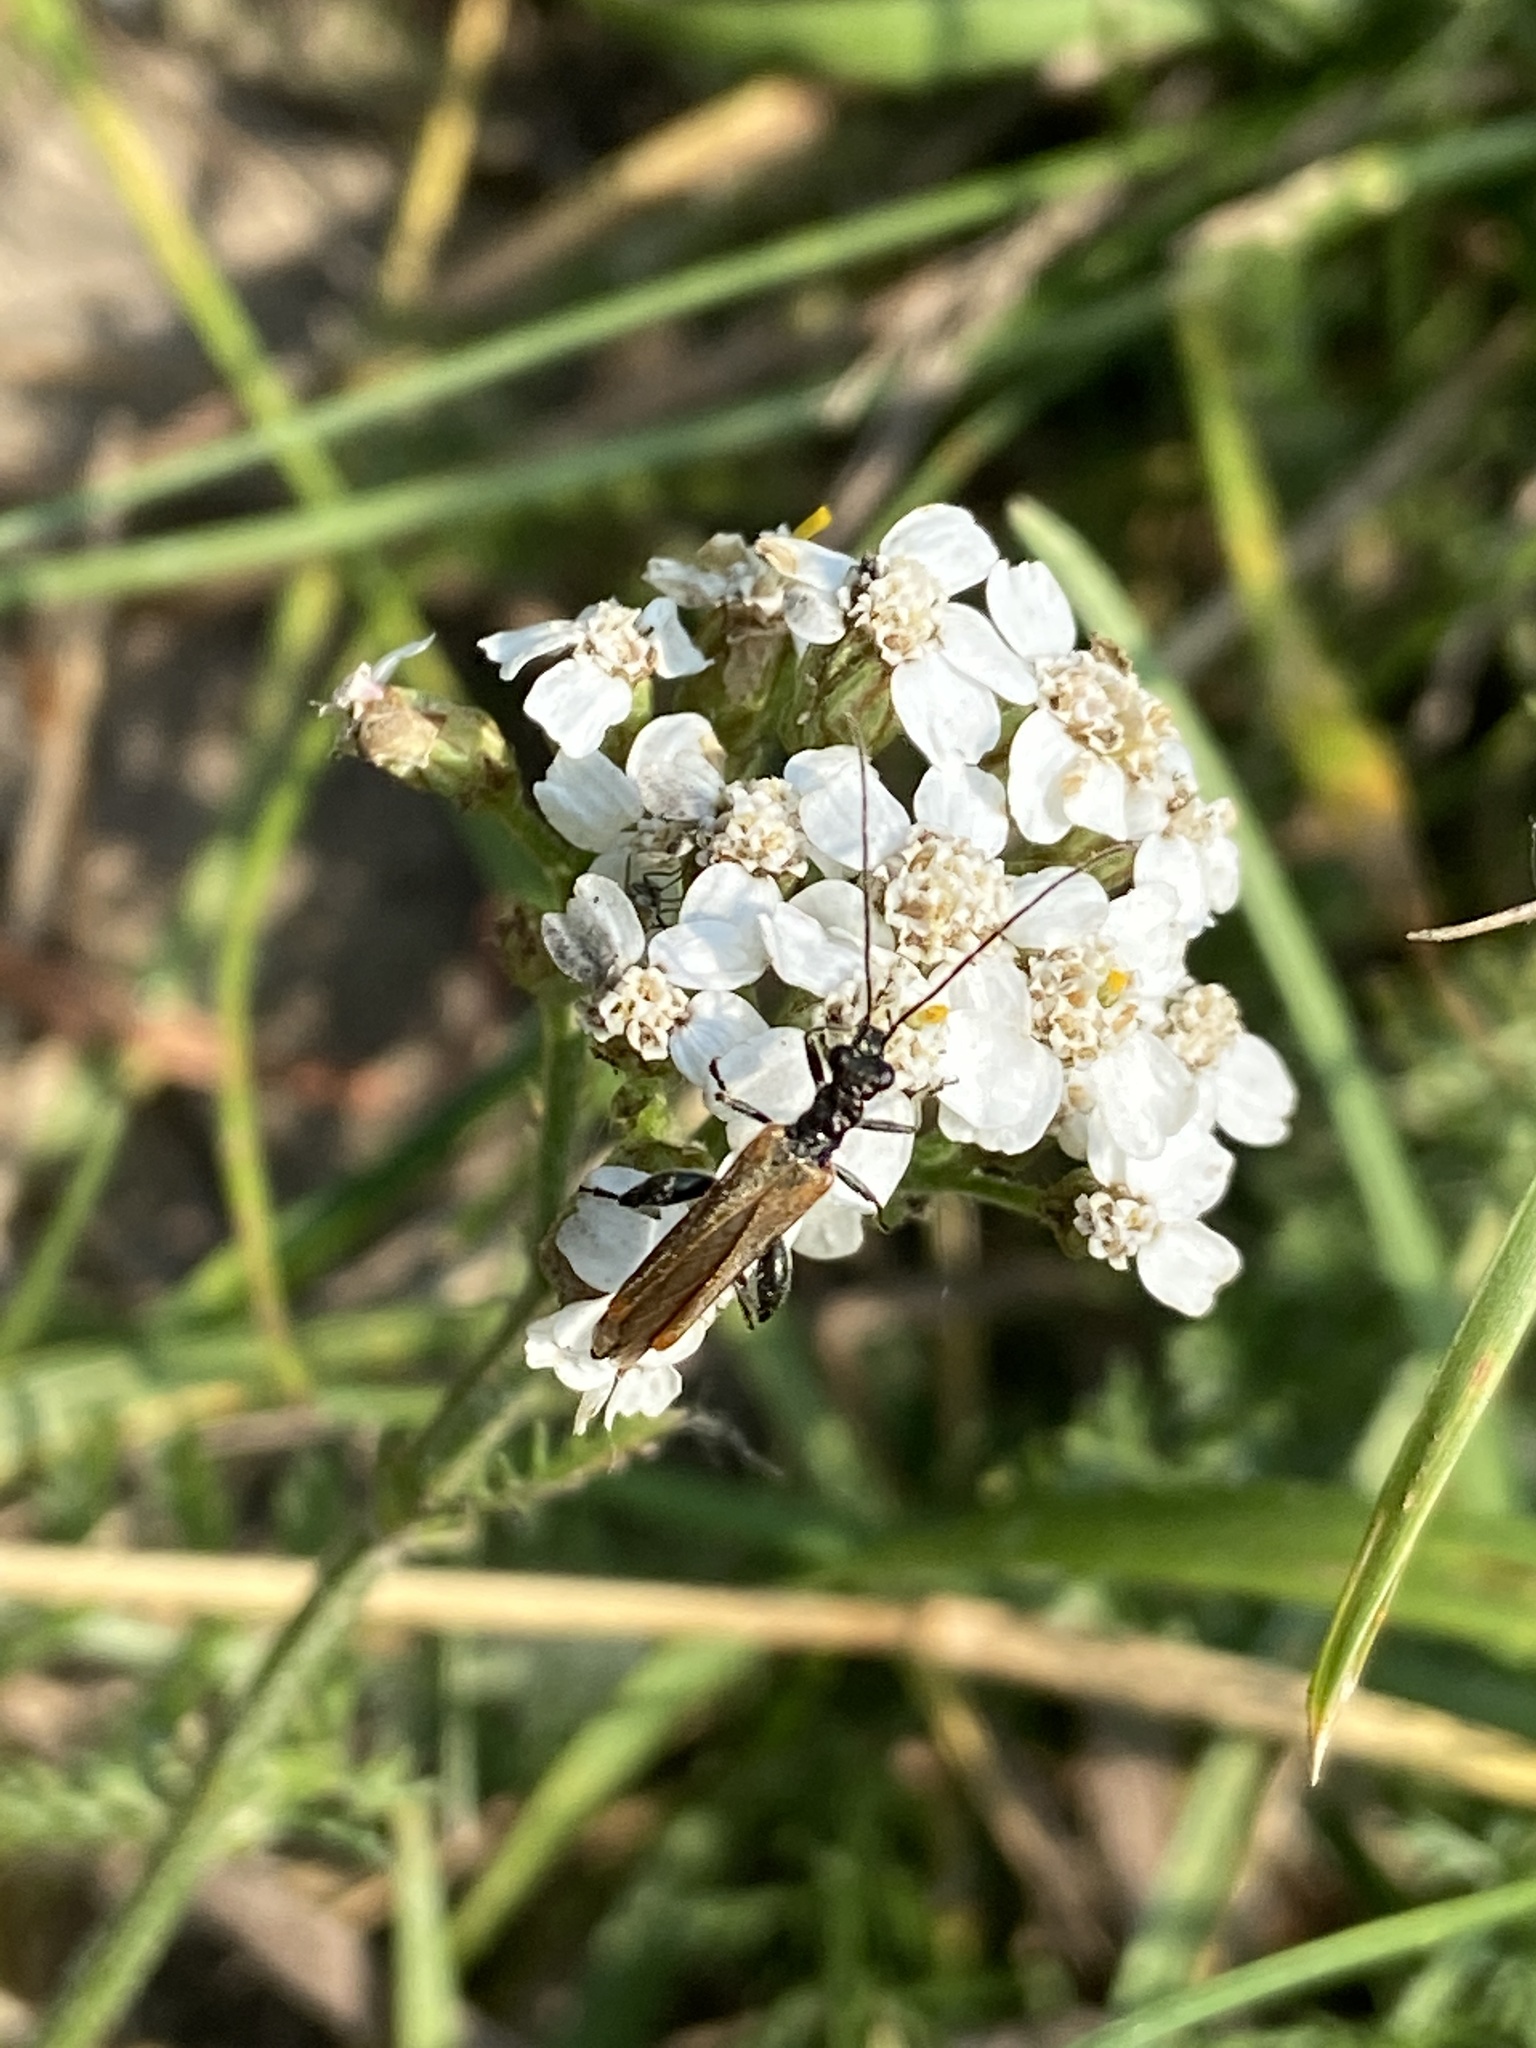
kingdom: Animalia
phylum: Arthropoda
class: Insecta
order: Coleoptera
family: Oedemeridae
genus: Oedemera
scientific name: Oedemera femorata
